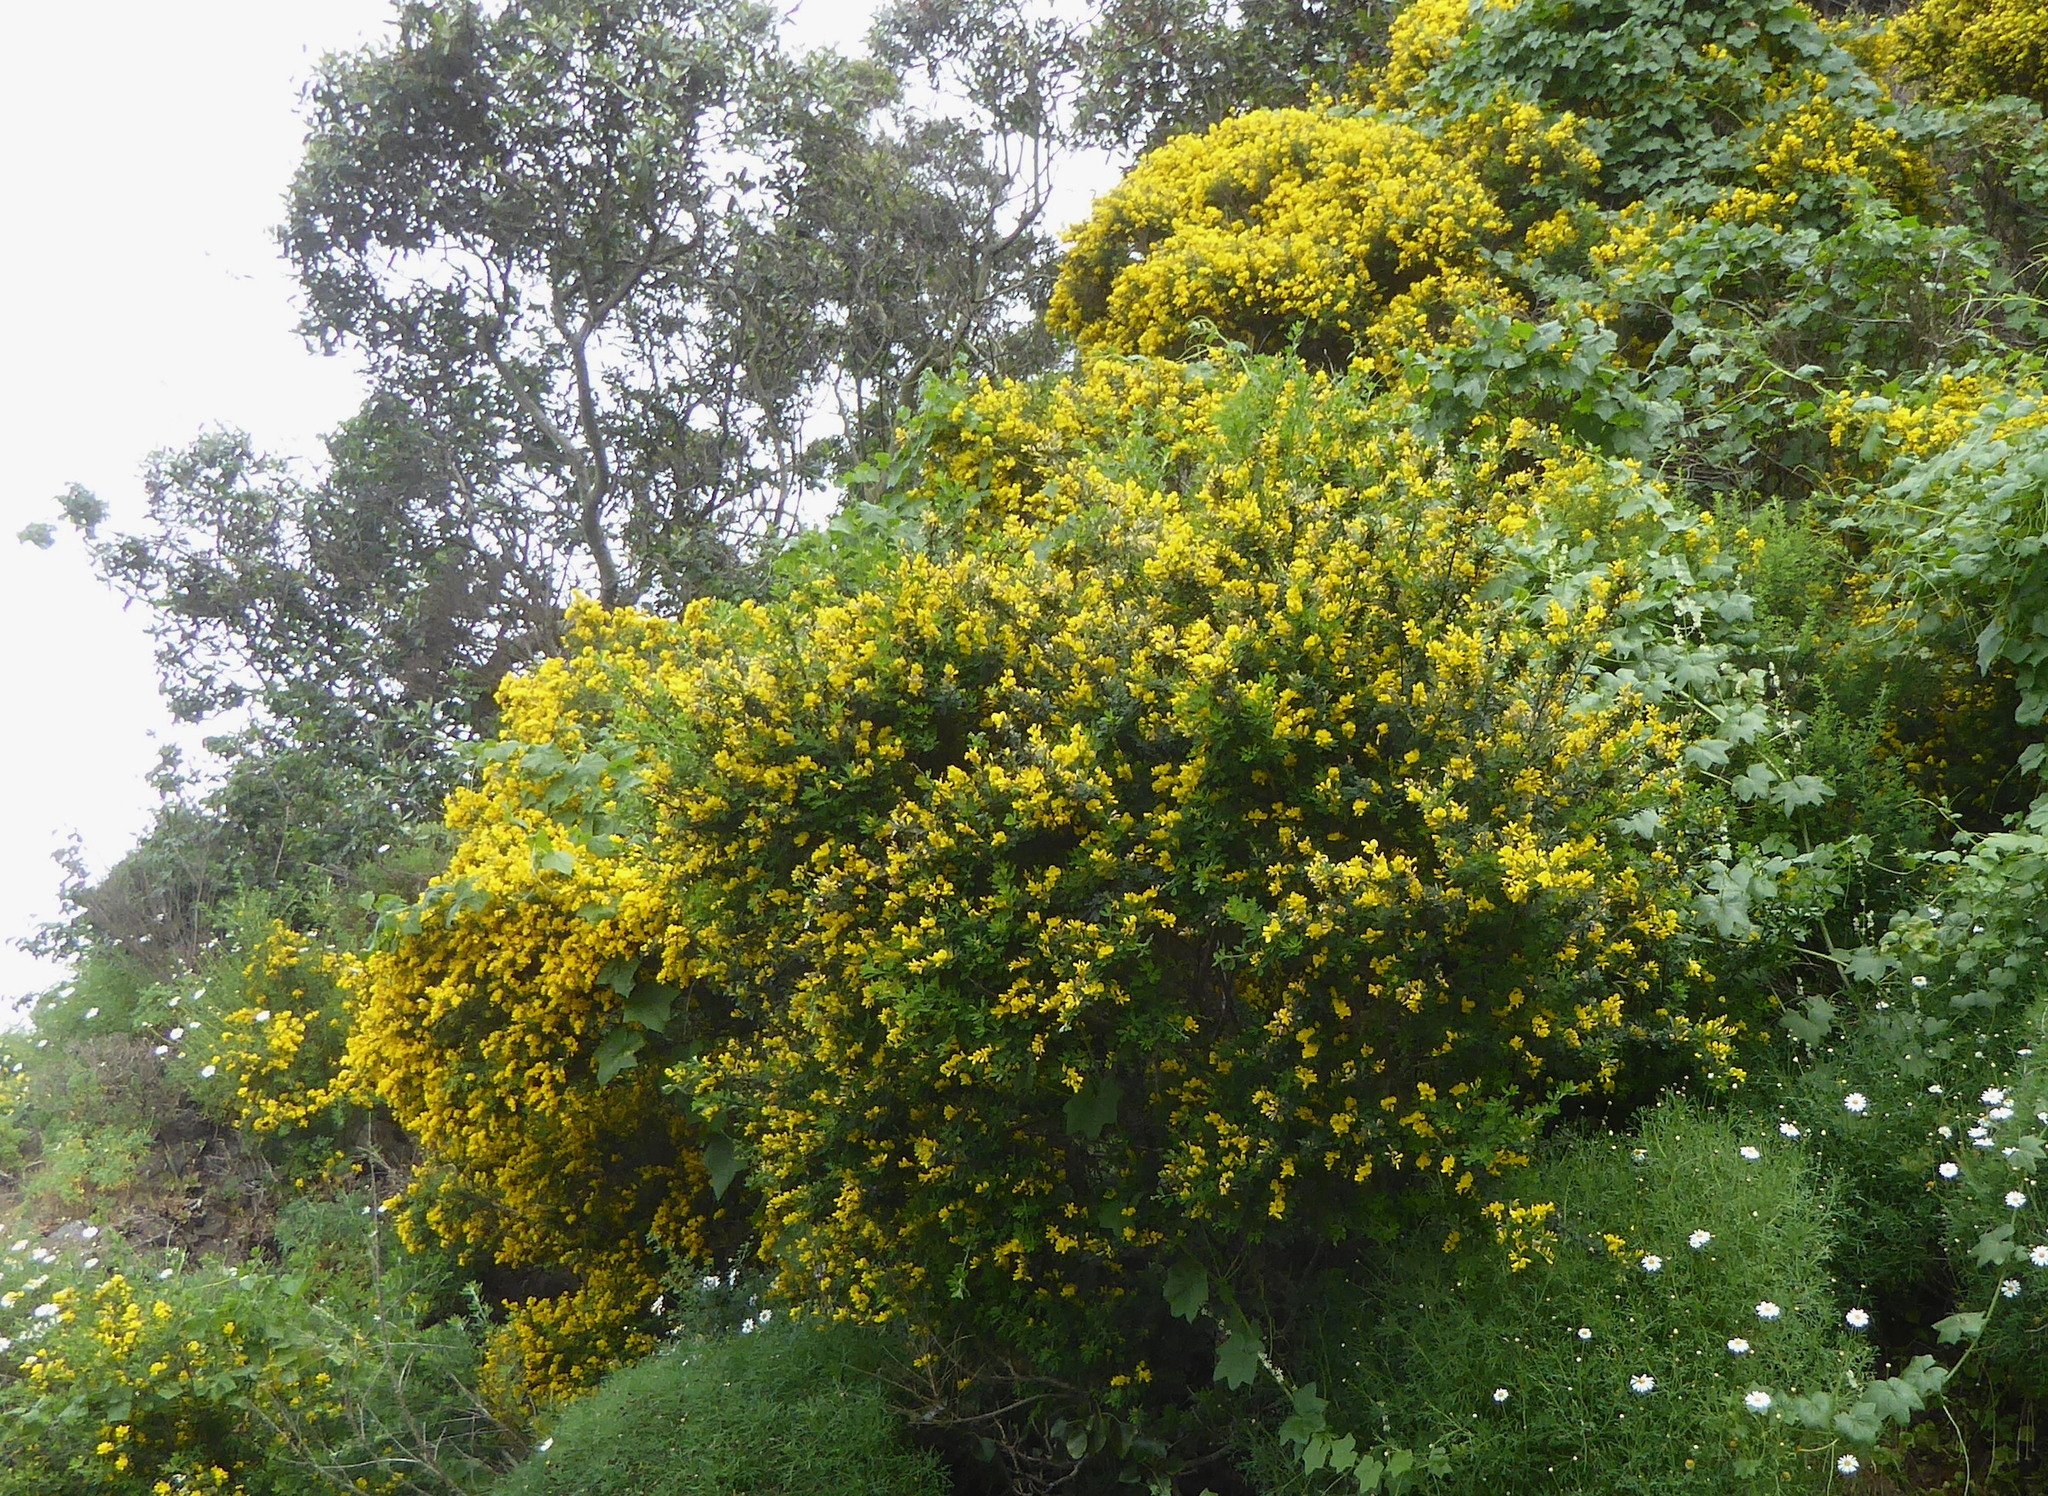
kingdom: Plantae
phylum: Tracheophyta
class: Magnoliopsida
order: Fabales
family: Fabaceae
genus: Genista
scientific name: Genista monspessulana
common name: Montpellier broom
